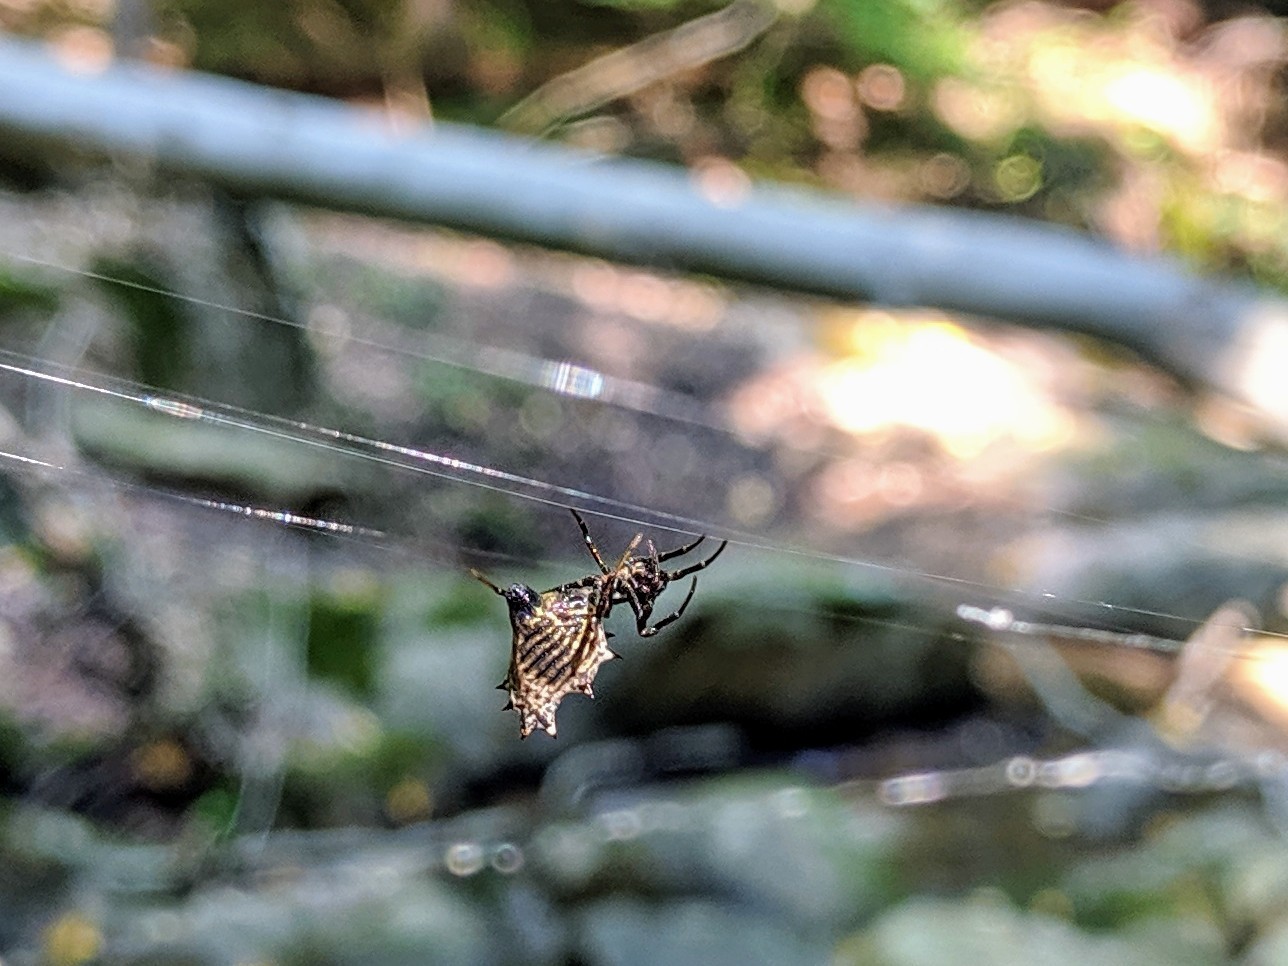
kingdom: Animalia
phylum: Arthropoda
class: Arachnida
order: Araneae
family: Araneidae
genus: Micrathena
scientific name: Micrathena gracilis
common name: Orb weavers
